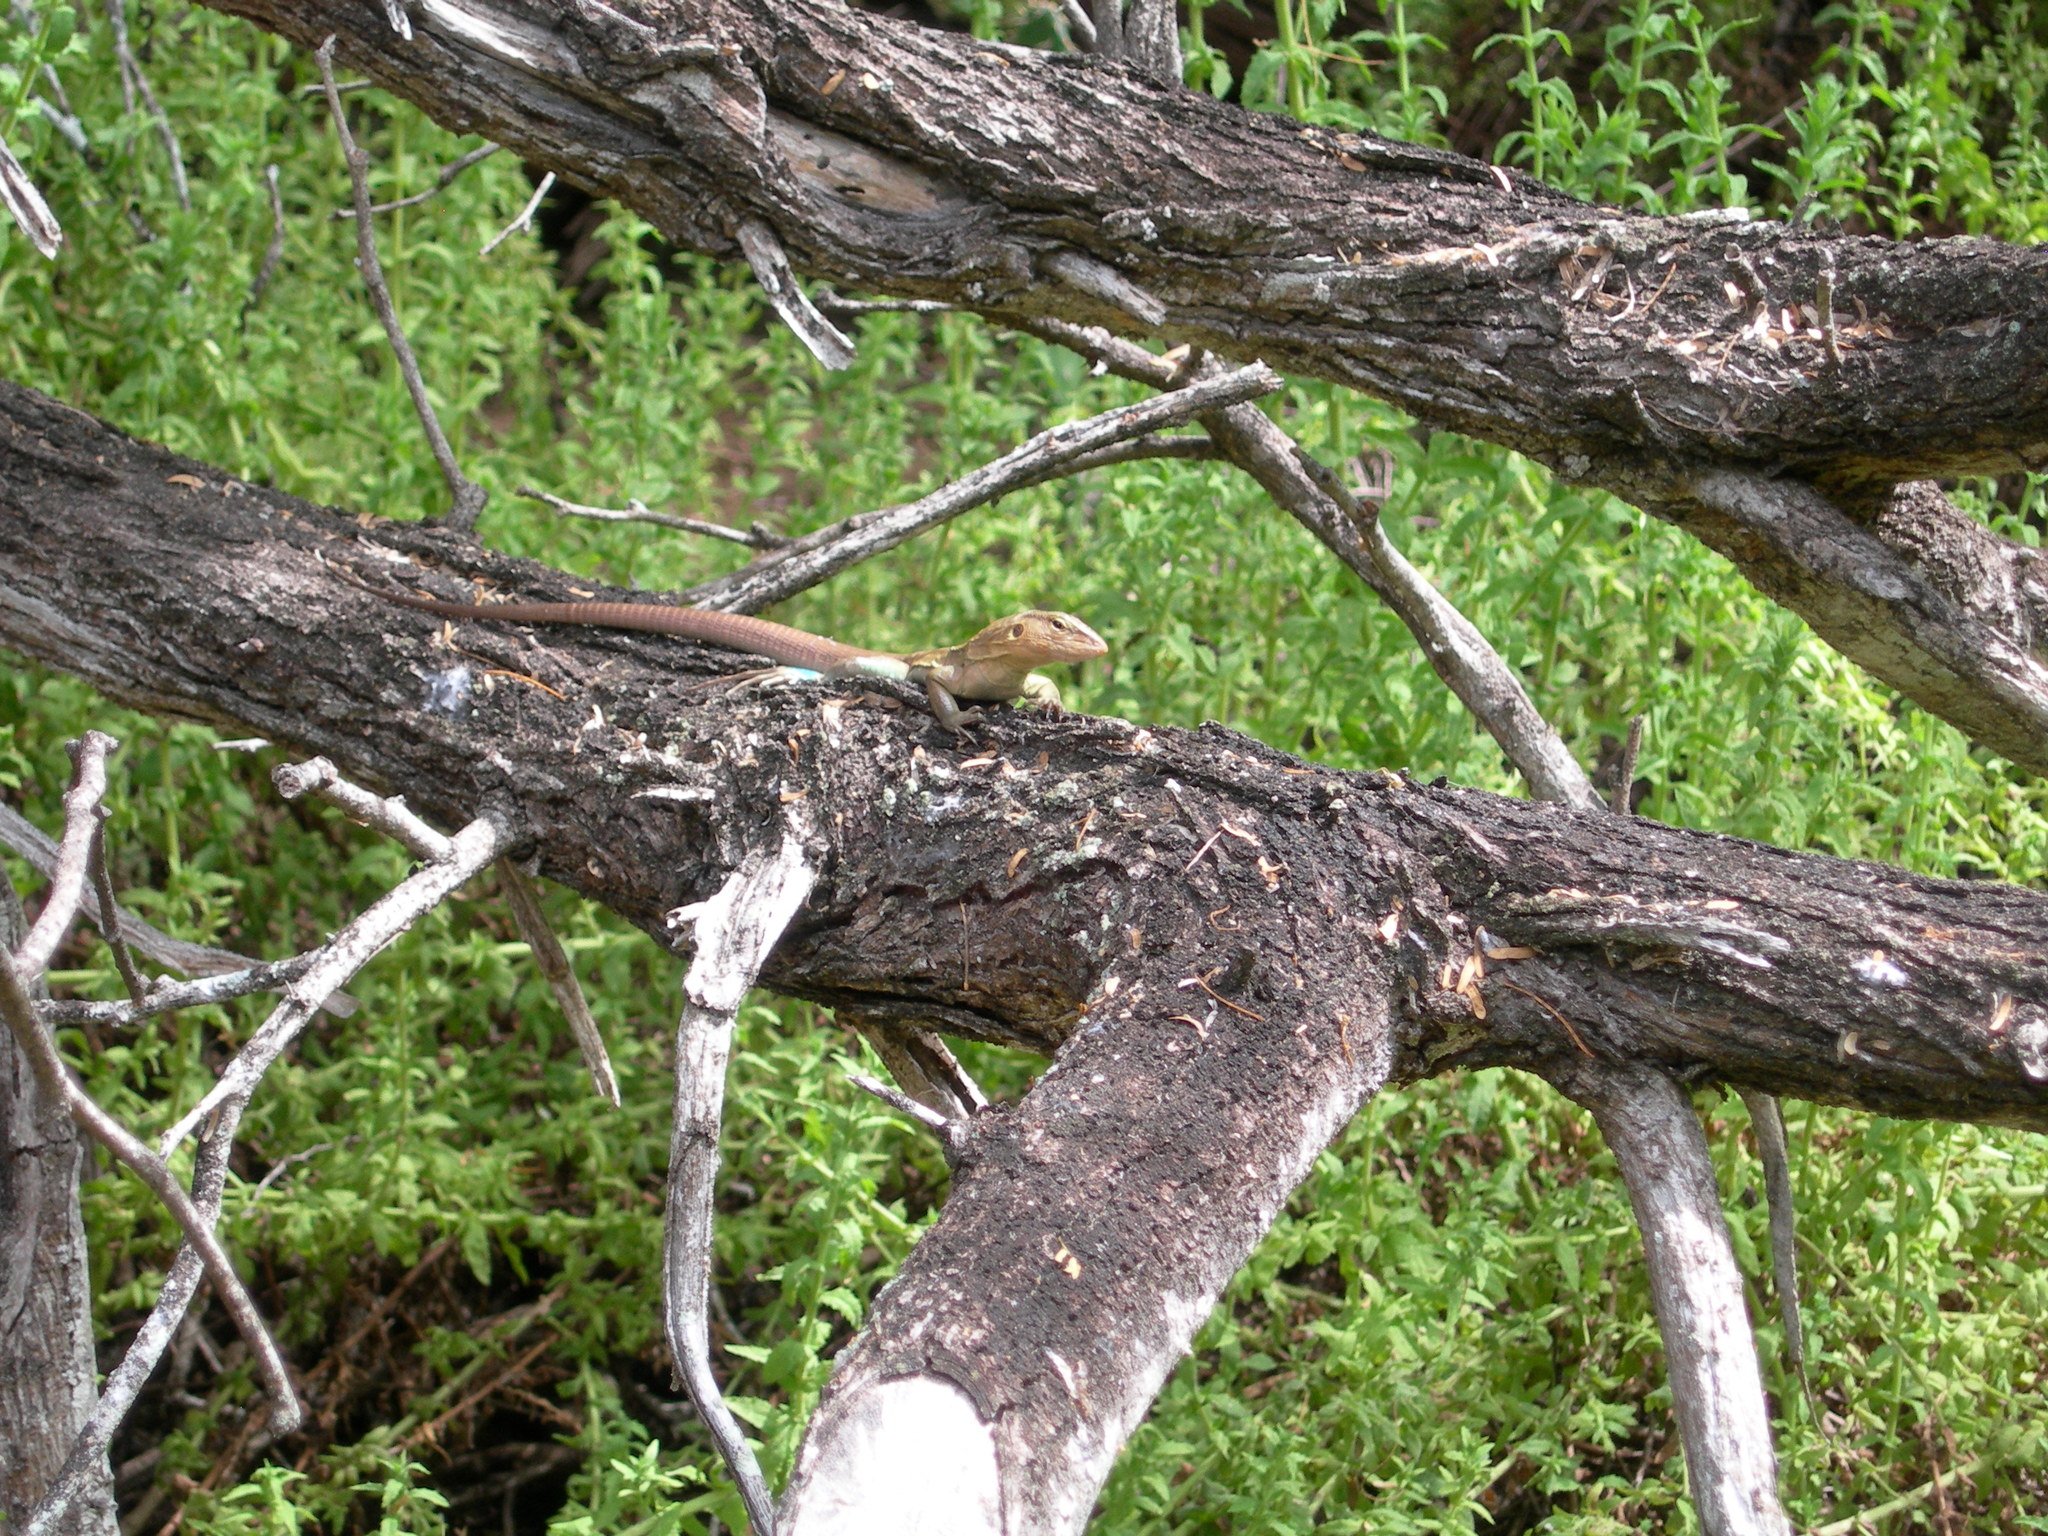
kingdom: Animalia
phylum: Chordata
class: Squamata
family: Teiidae
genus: Cnemidophorus
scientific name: Cnemidophorus ruthveni
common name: Bonaire whiptail
